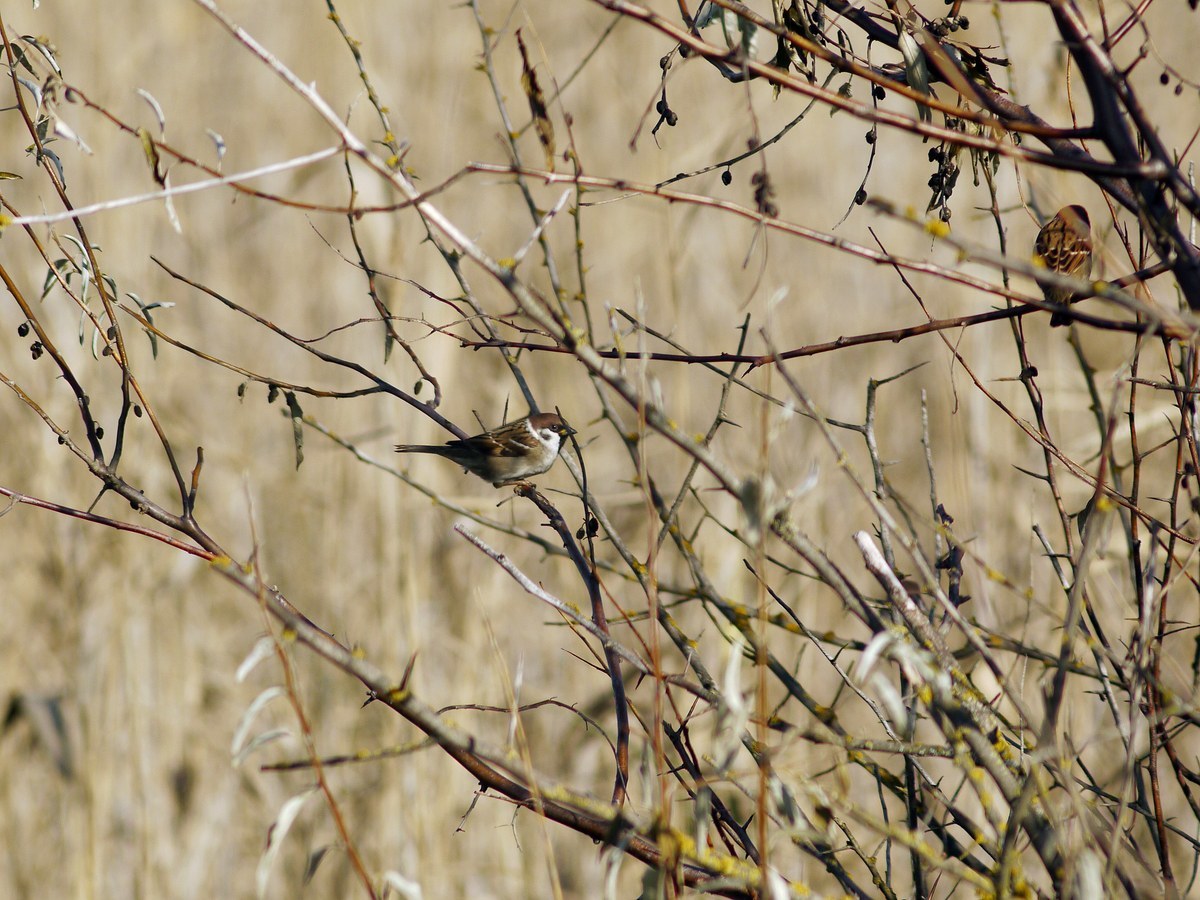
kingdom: Animalia
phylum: Chordata
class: Aves
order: Passeriformes
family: Passeridae
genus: Passer
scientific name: Passer montanus
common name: Eurasian tree sparrow
